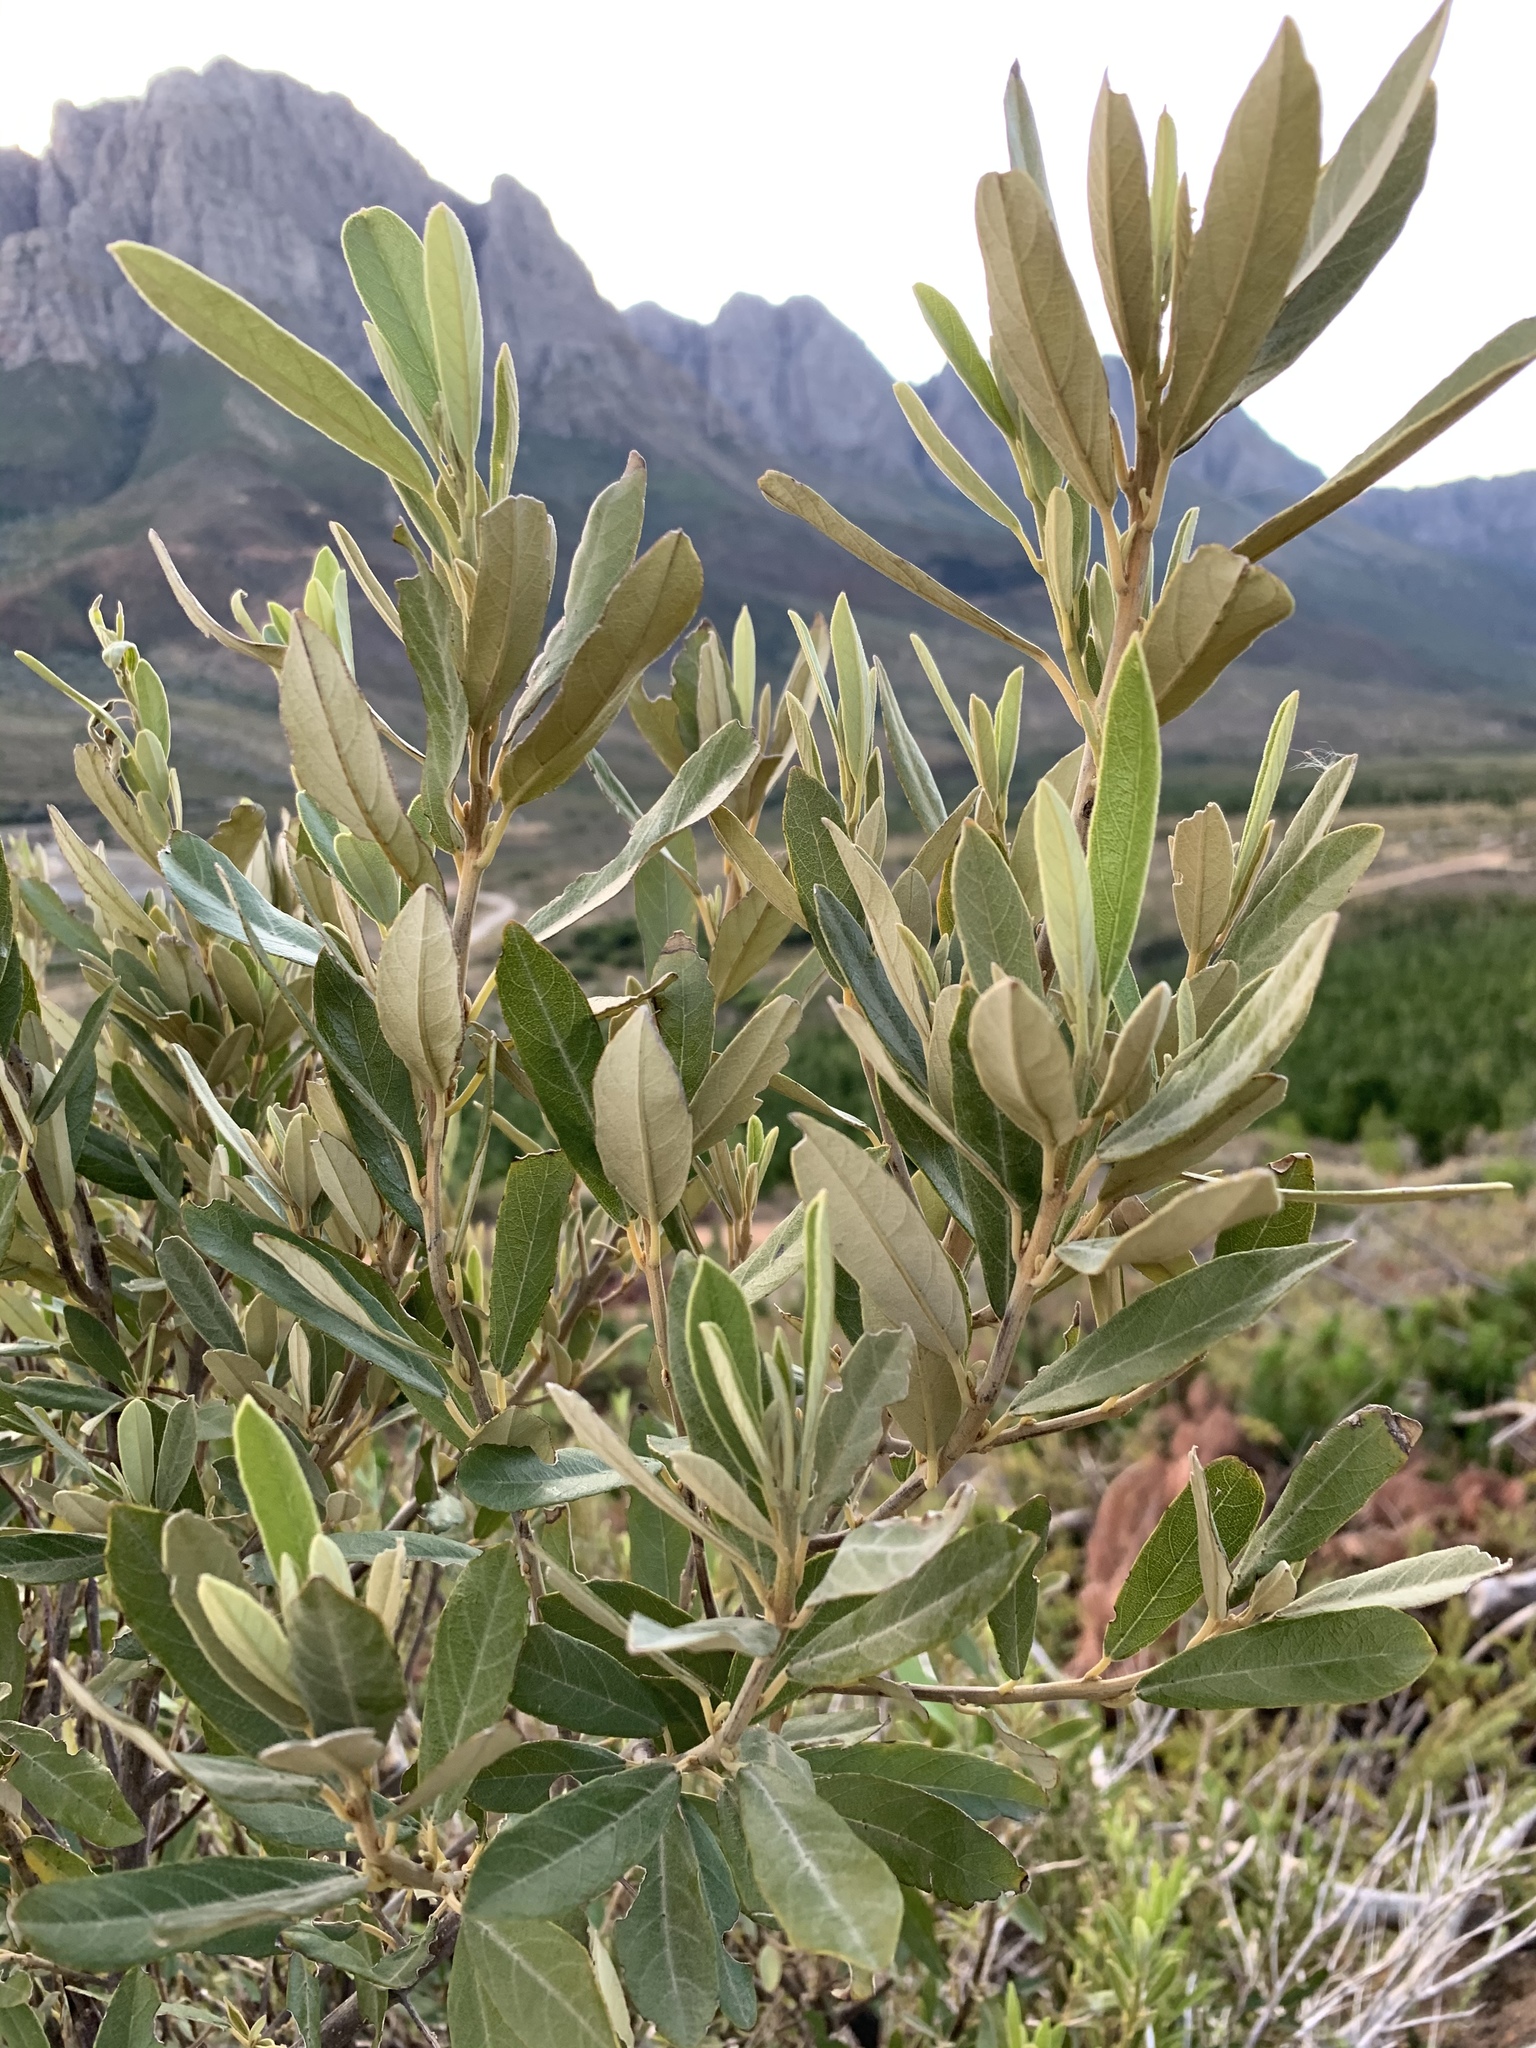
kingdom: Plantae
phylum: Tracheophyta
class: Magnoliopsida
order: Malpighiales
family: Achariaceae
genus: Kiggelaria
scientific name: Kiggelaria africana
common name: Wild peach
